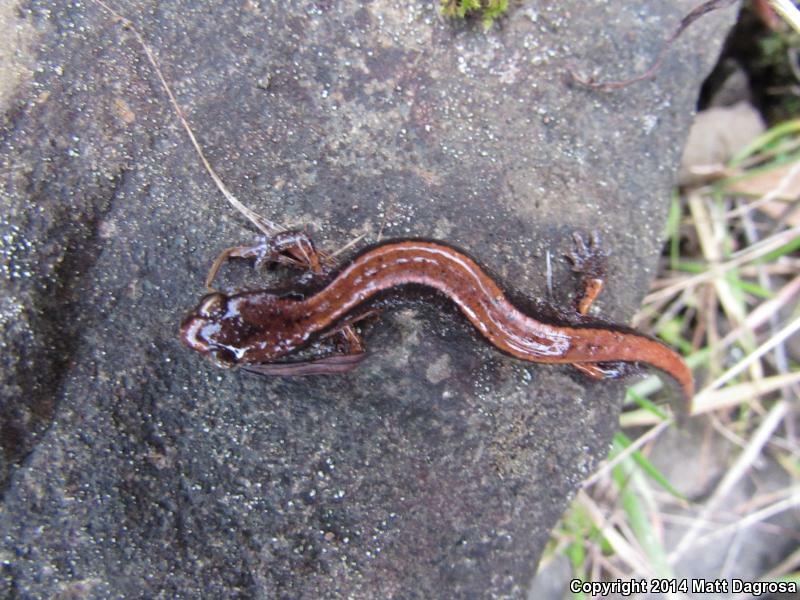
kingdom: Animalia
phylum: Chordata
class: Amphibia
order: Caudata
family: Plethodontidae
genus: Plethodon
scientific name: Plethodon vehiculum
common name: Western red-backed salamander
